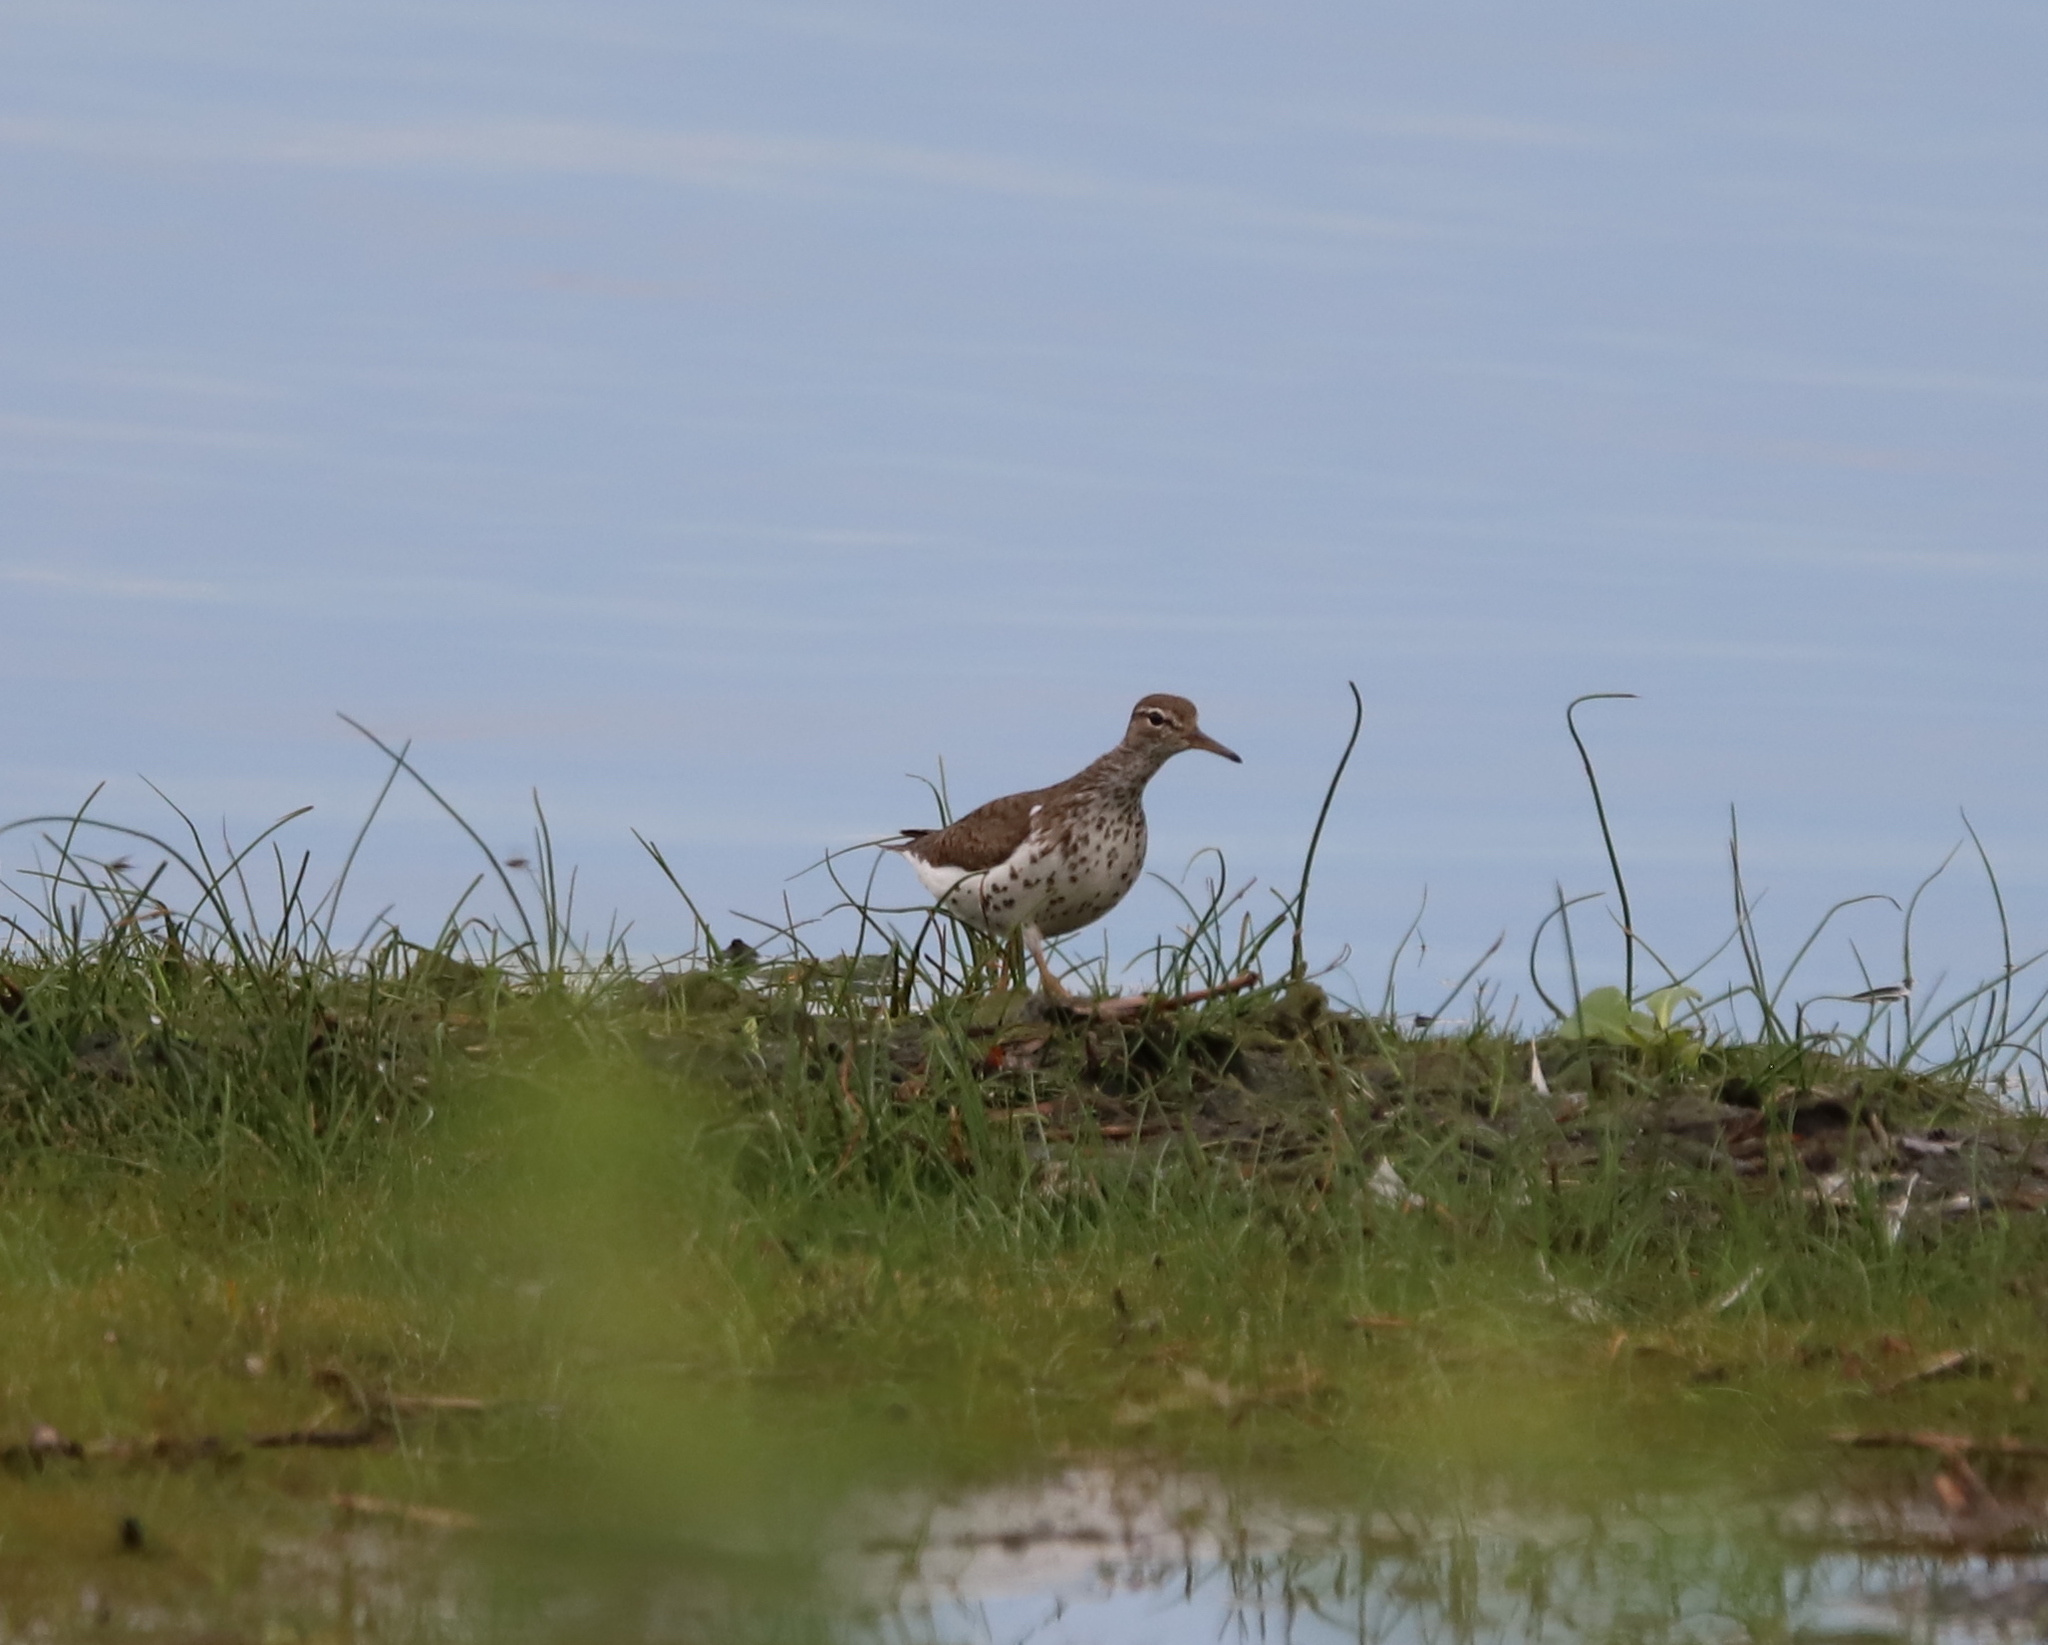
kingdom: Animalia
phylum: Chordata
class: Aves
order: Charadriiformes
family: Scolopacidae
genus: Actitis
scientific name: Actitis macularius
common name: Spotted sandpiper
